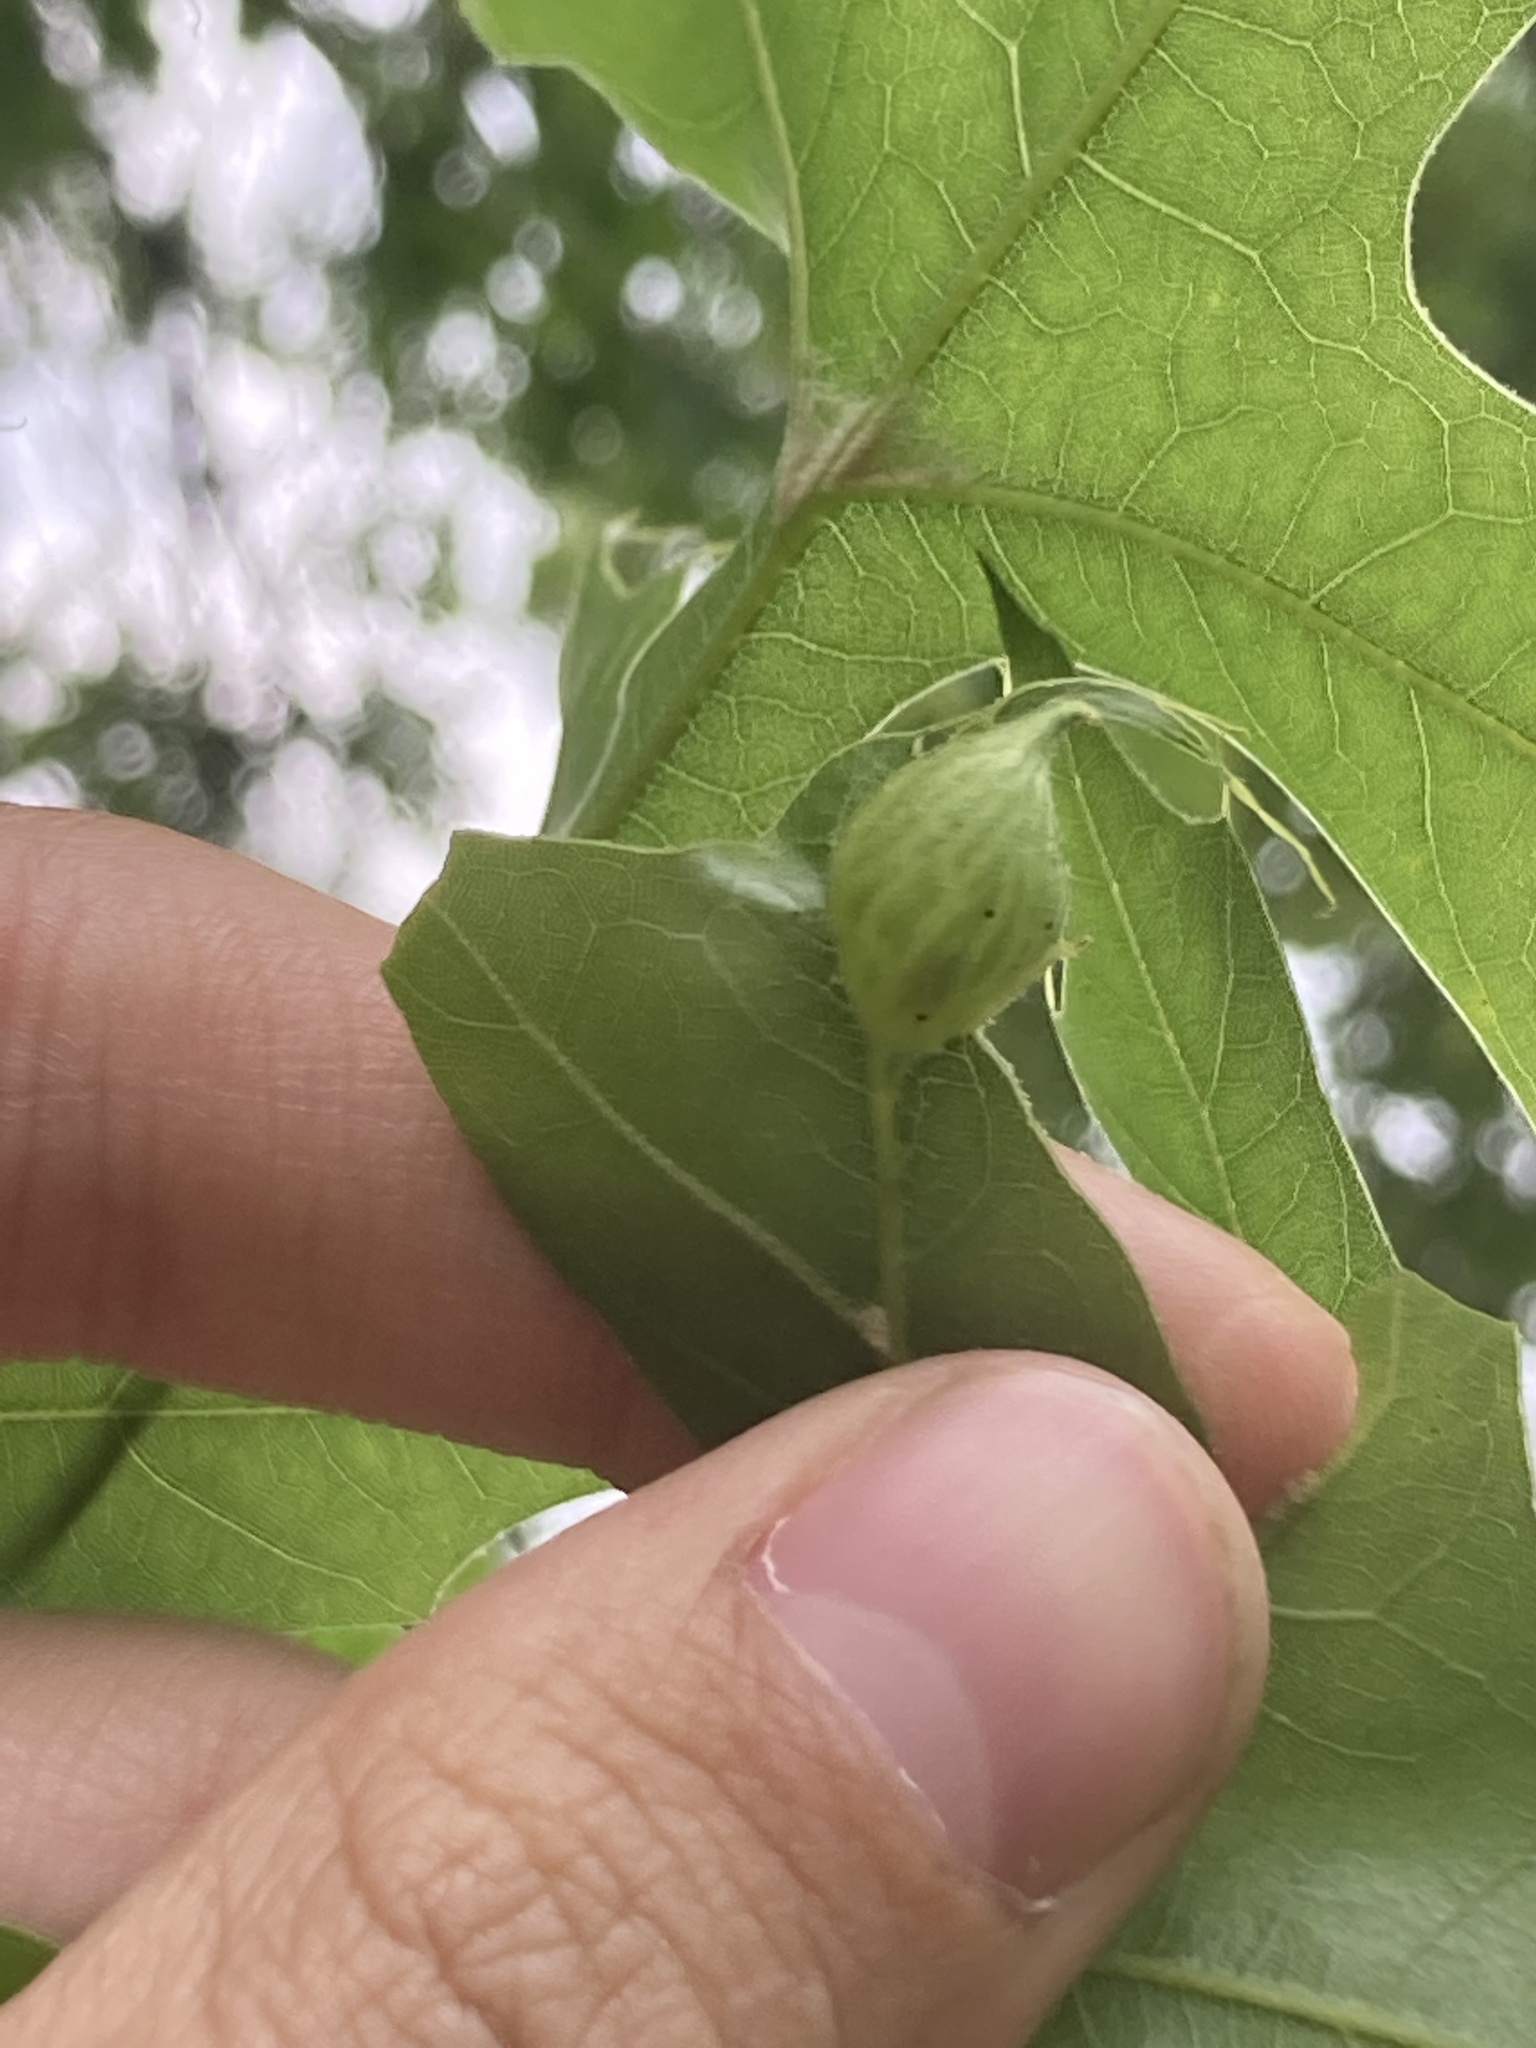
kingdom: Animalia
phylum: Arthropoda
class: Insecta
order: Hymenoptera
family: Cynipidae
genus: Dryocosmus
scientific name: Dryocosmus
